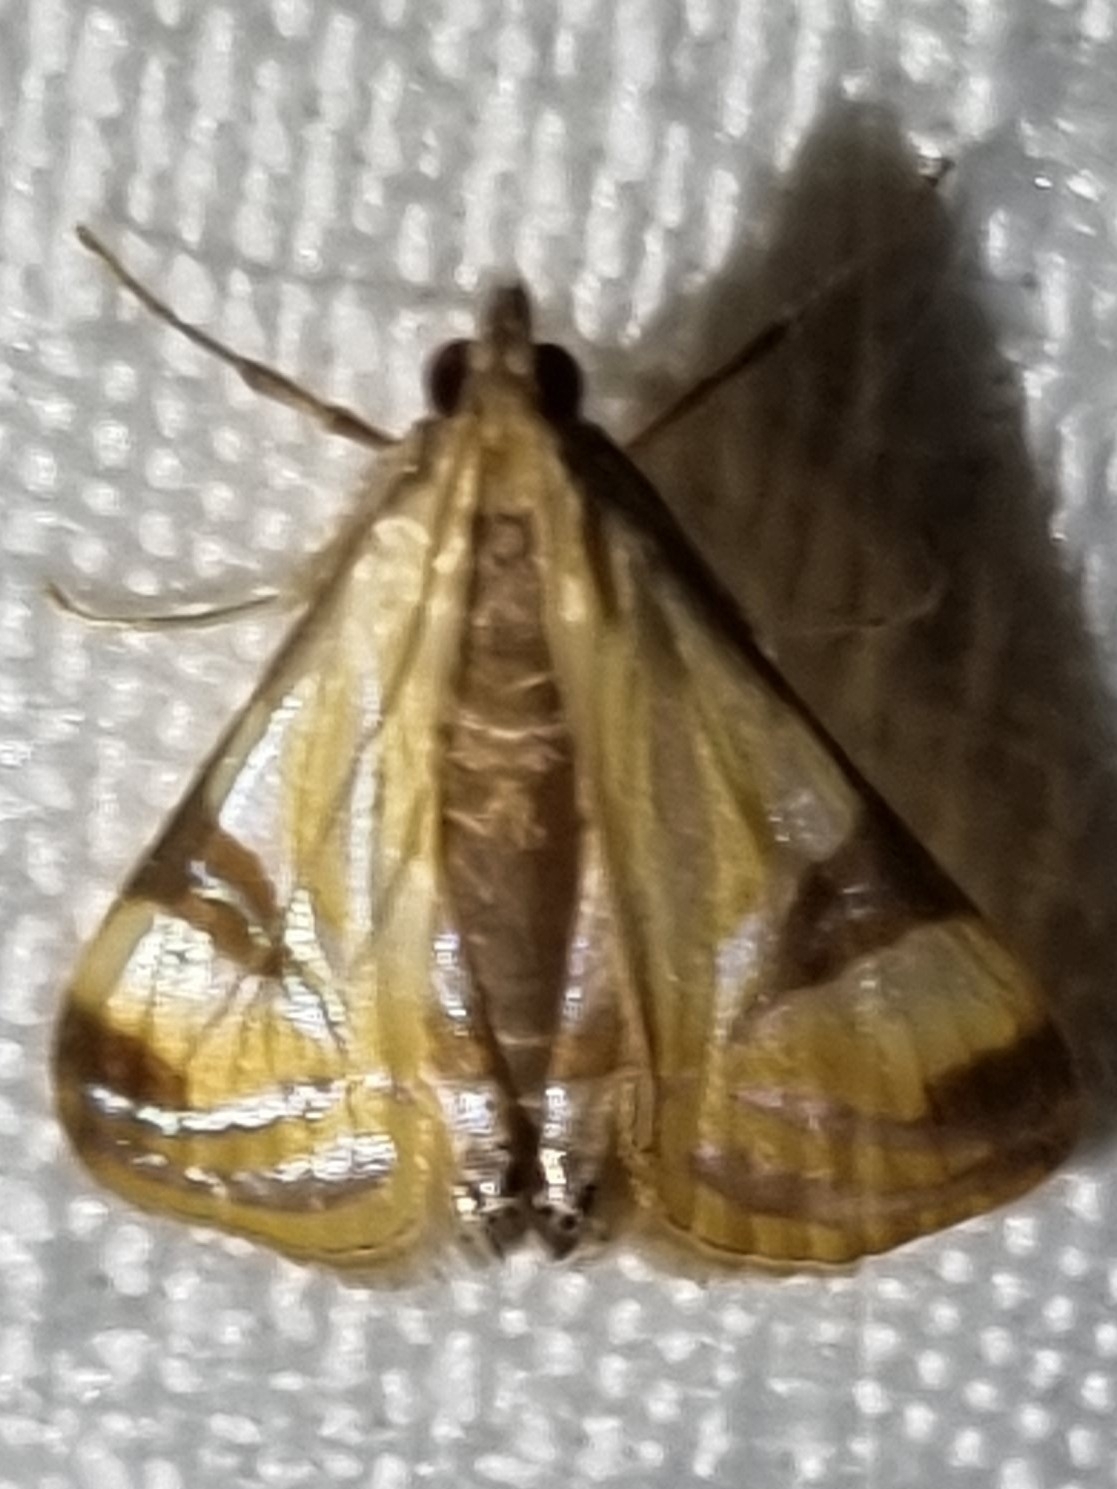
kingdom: Animalia
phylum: Arthropoda
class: Insecta
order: Lepidoptera
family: Crambidae
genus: Talanga
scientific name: Talanga tolumnialis
